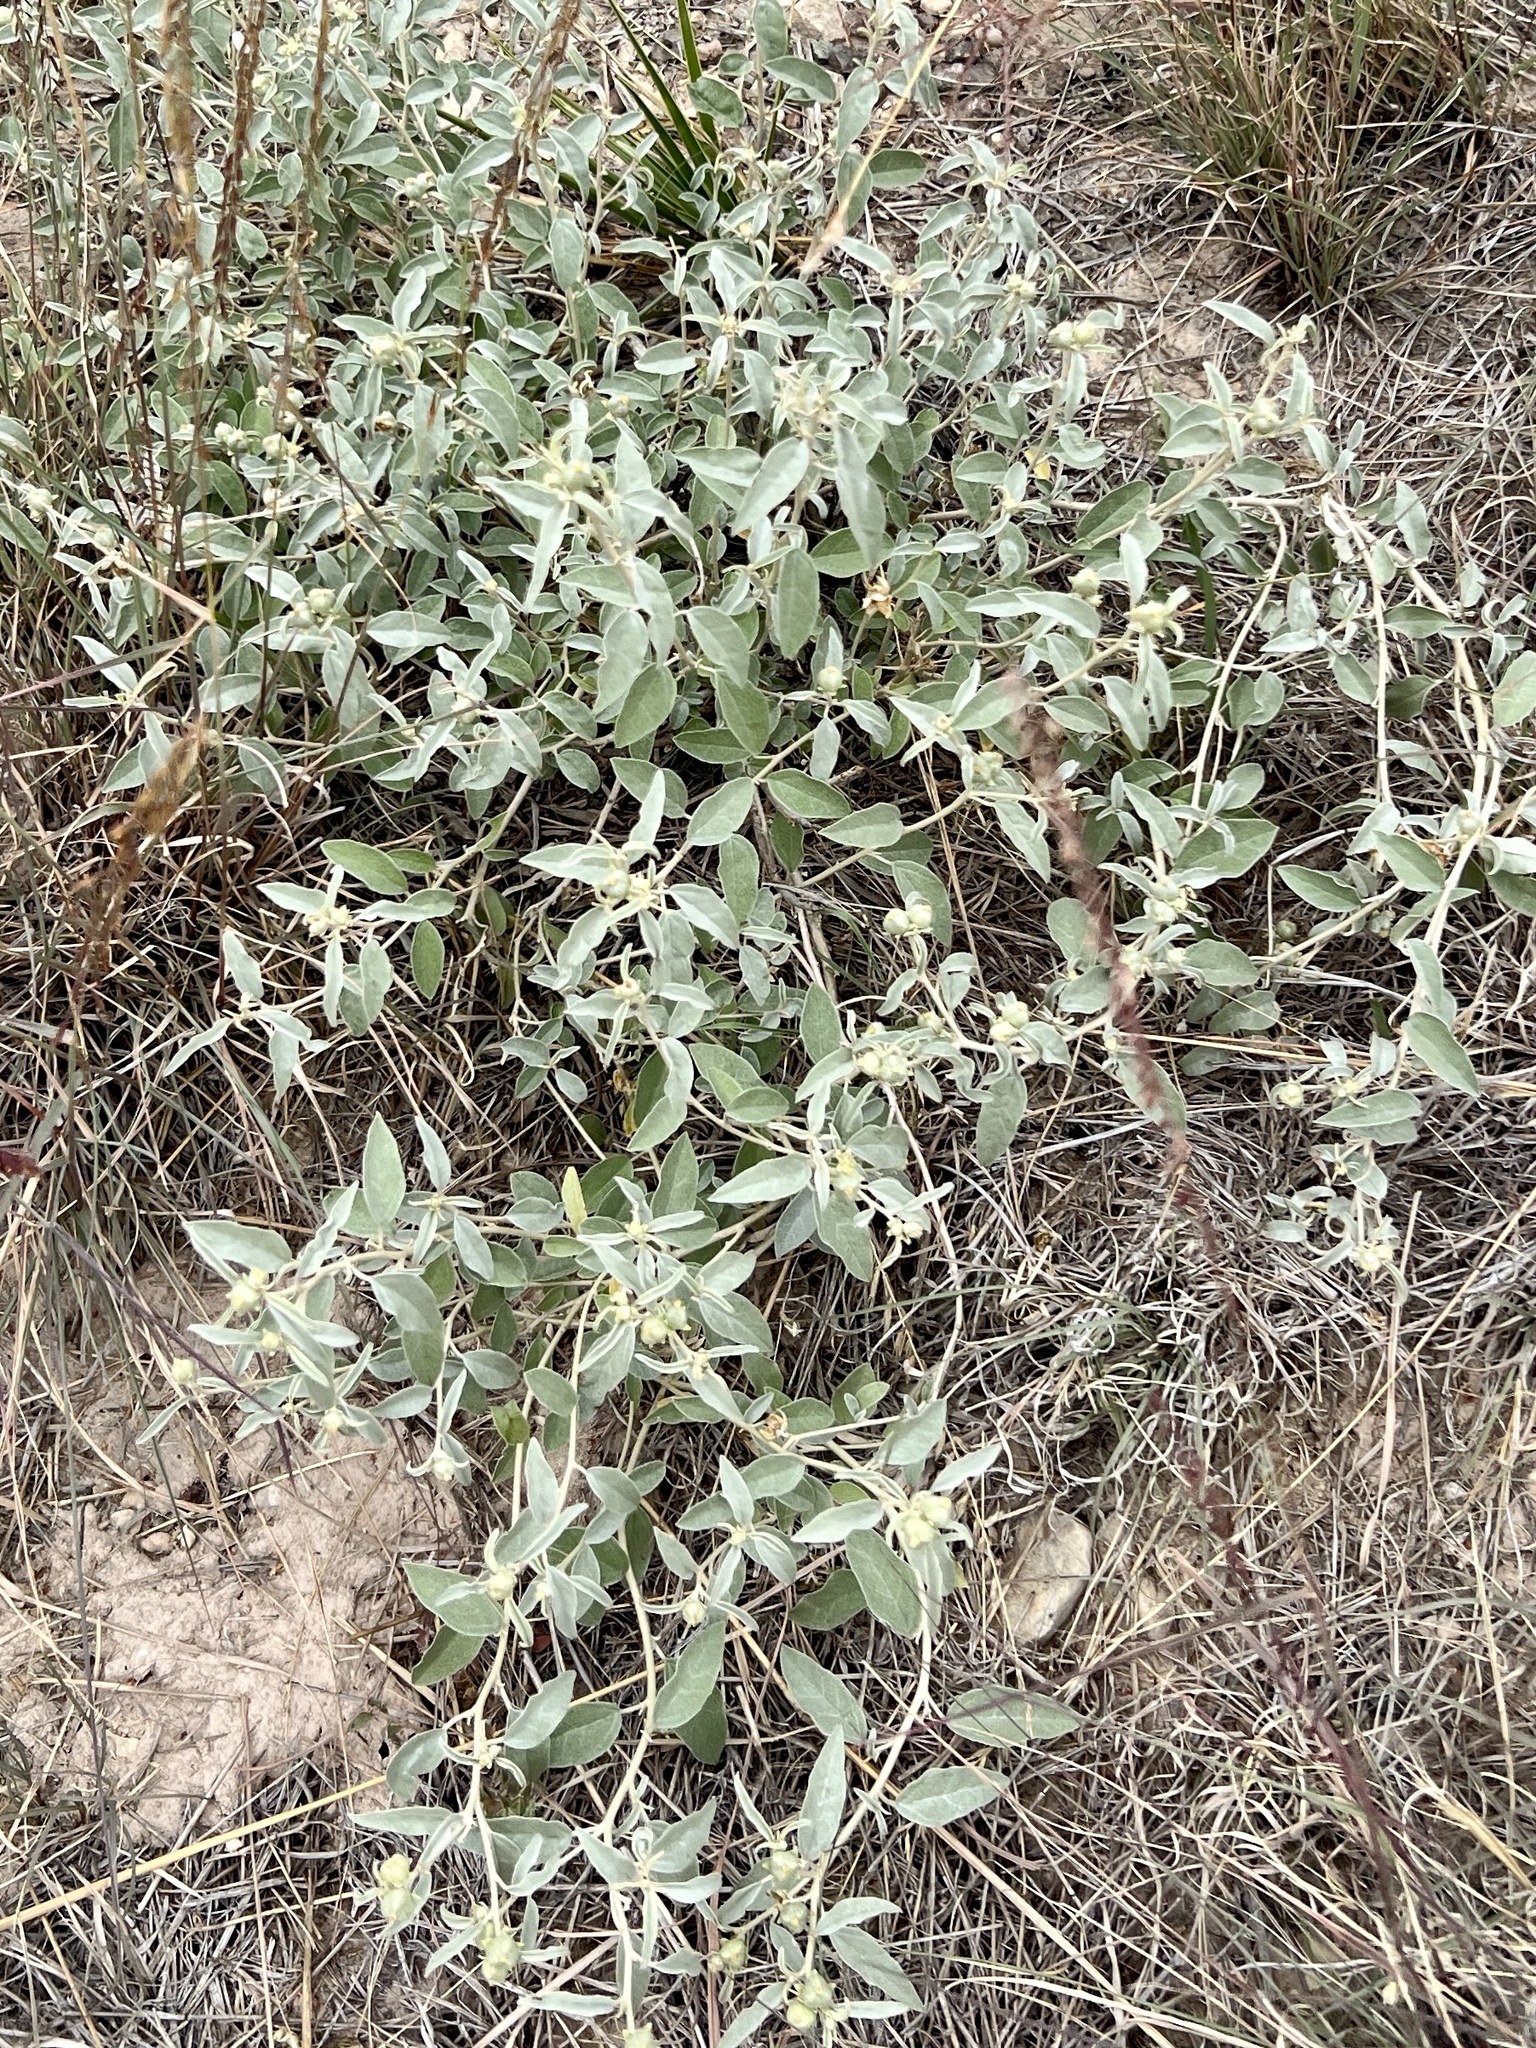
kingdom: Plantae
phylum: Tracheophyta
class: Magnoliopsida
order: Malpighiales
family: Euphorbiaceae
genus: Croton
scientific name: Croton dioicus
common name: Grassland croton
